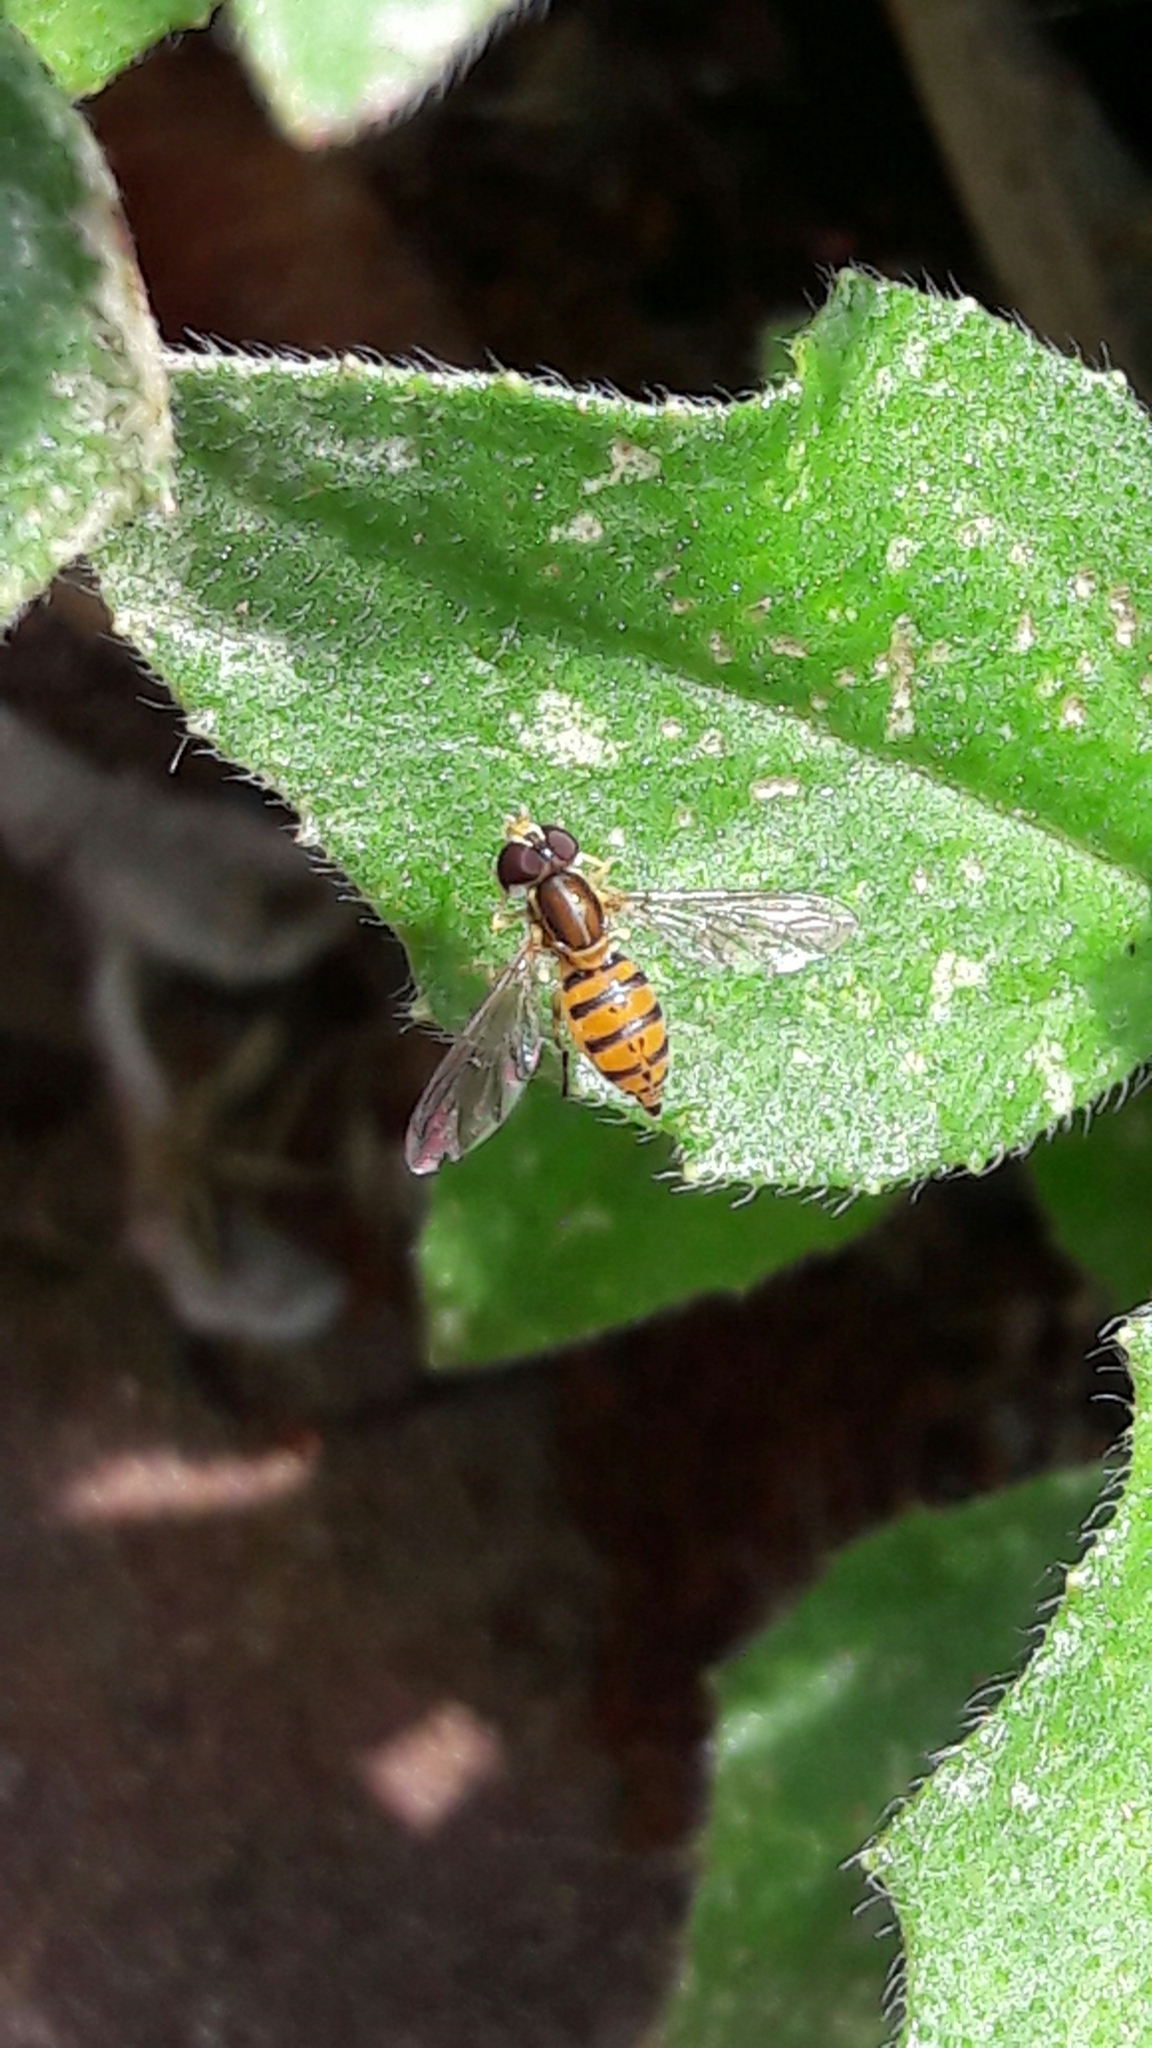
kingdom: Animalia
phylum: Arthropoda
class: Insecta
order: Diptera
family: Syrphidae
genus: Toxomerus
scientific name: Toxomerus
